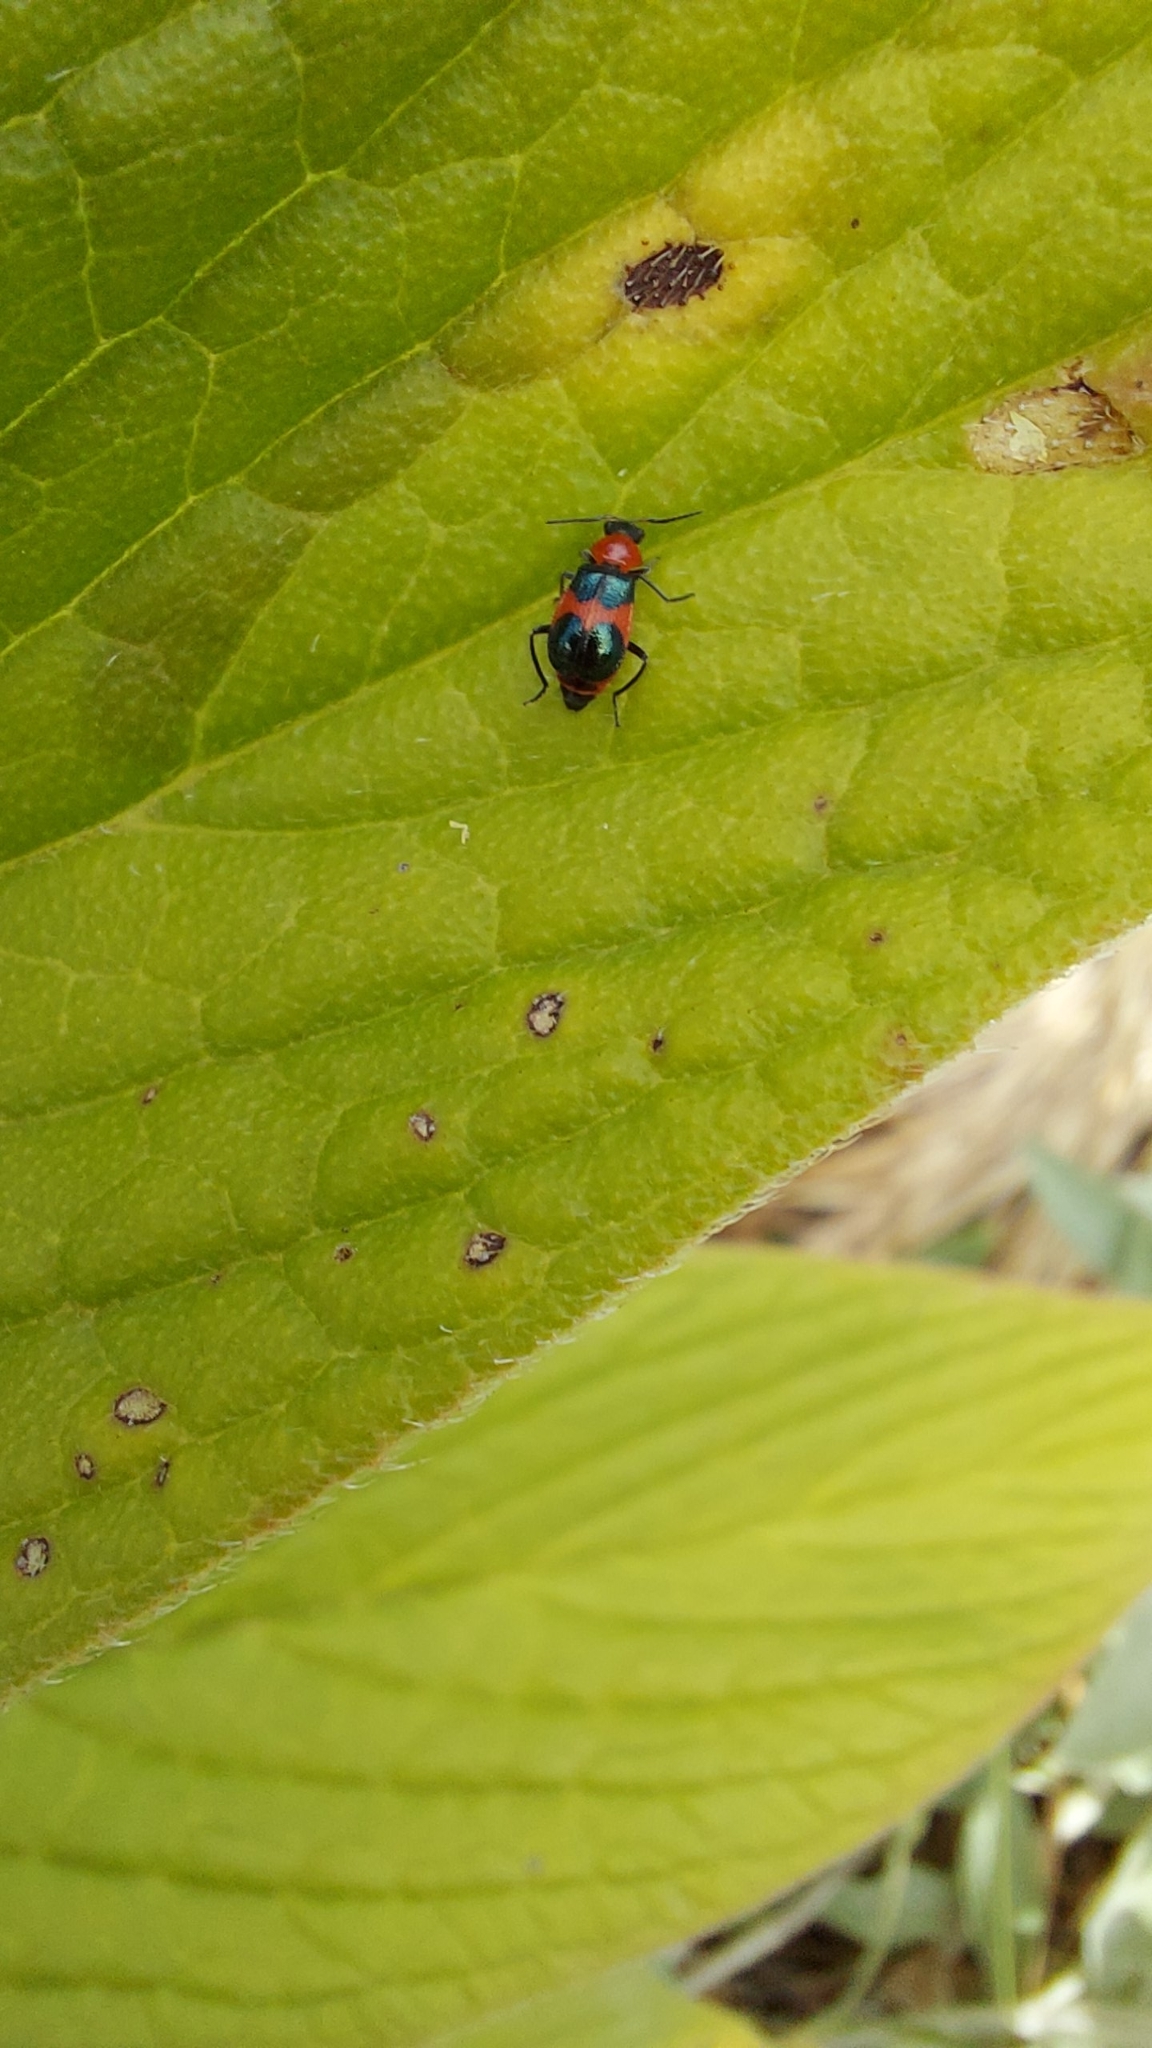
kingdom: Animalia
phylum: Arthropoda
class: Insecta
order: Coleoptera
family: Melyridae
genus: Dicranolaius
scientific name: Dicranolaius
